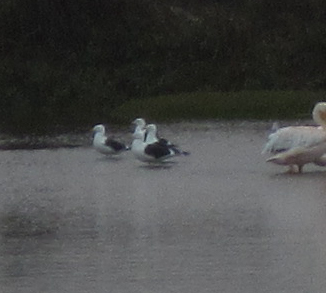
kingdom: Animalia
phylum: Chordata
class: Aves
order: Charadriiformes
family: Laridae
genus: Larus
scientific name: Larus dominicanus
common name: Kelp gull
